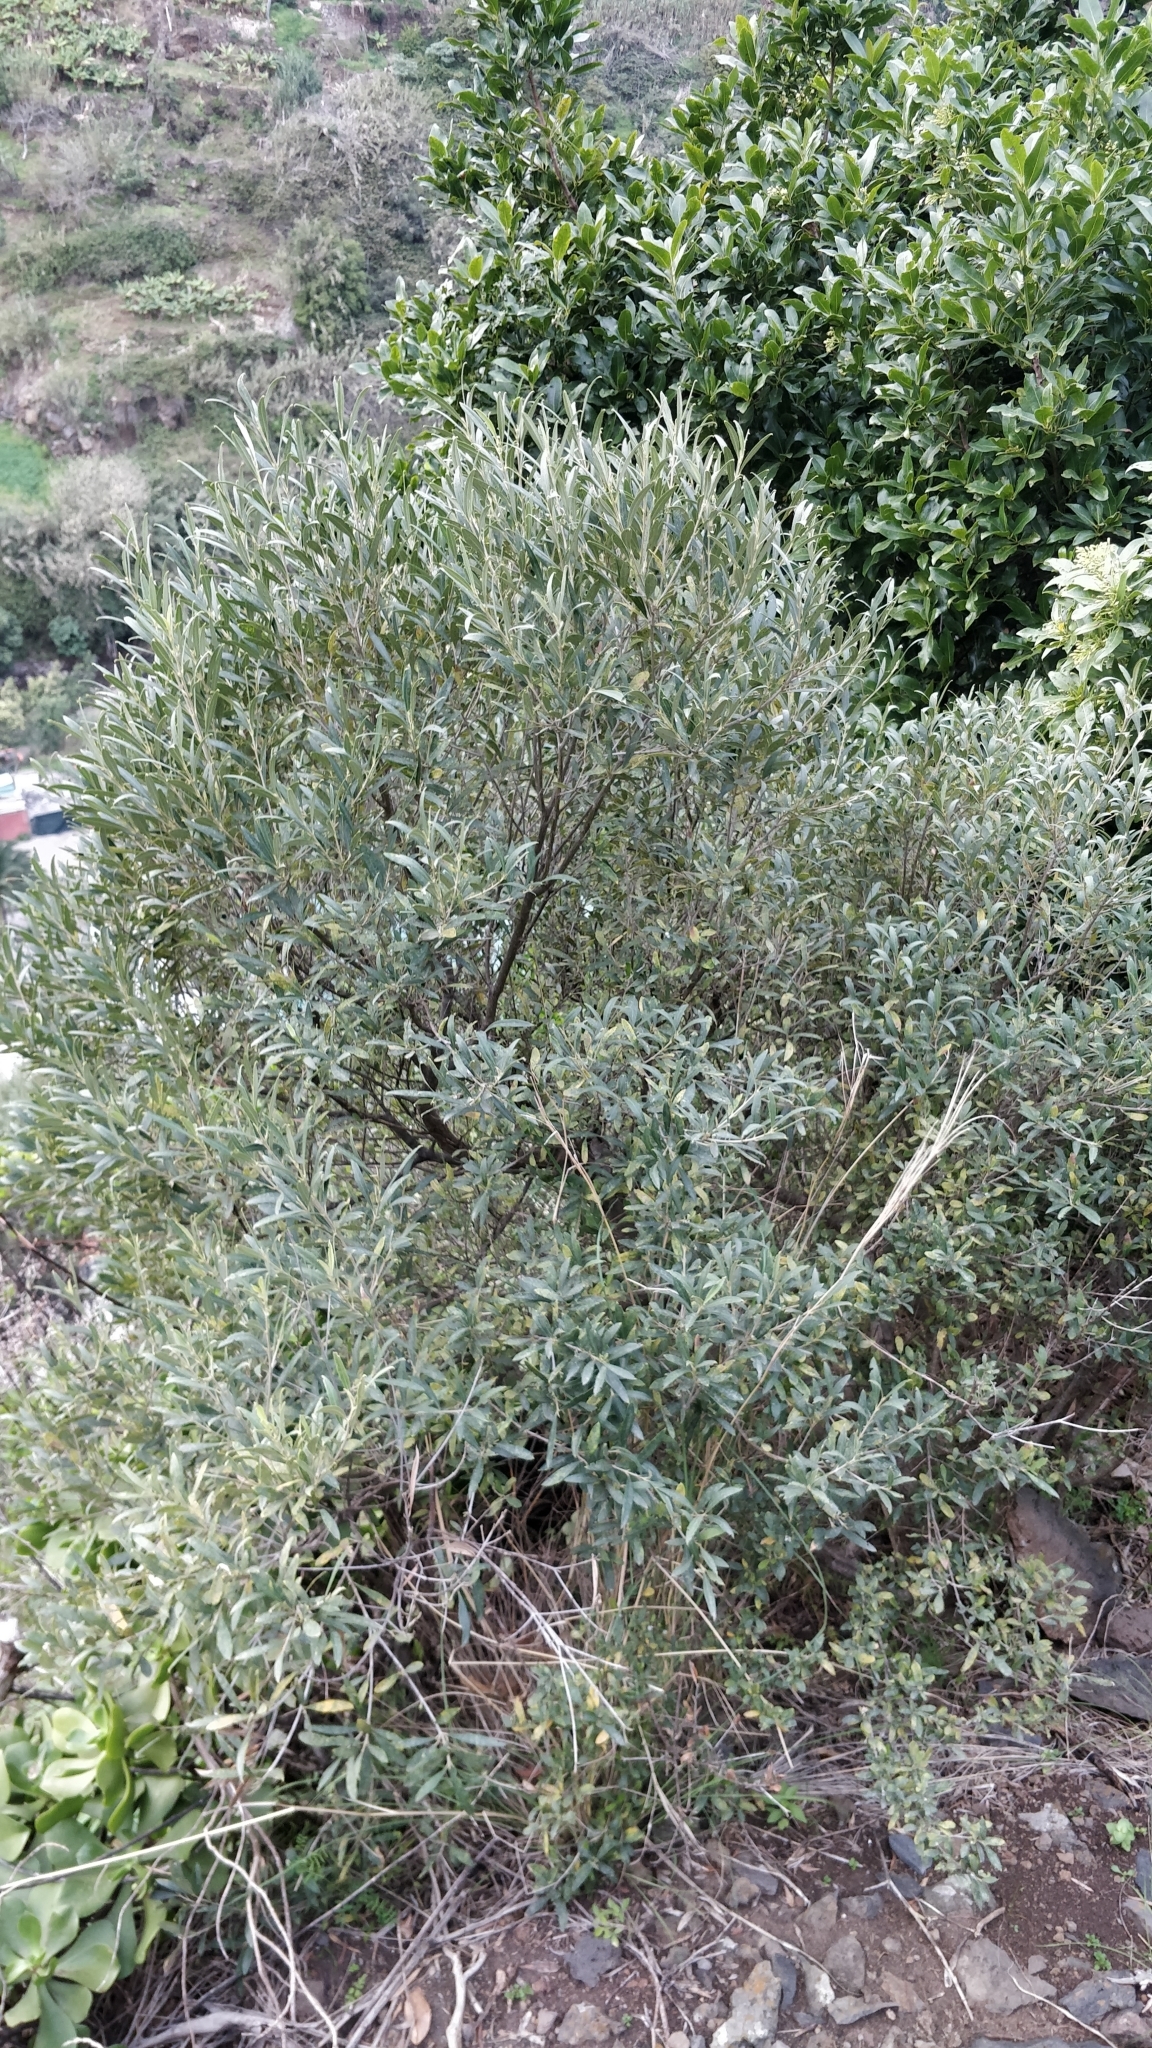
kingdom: Plantae
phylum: Tracheophyta
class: Magnoliopsida
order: Lamiales
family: Oleaceae
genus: Olea
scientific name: Olea europaea
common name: Olive
